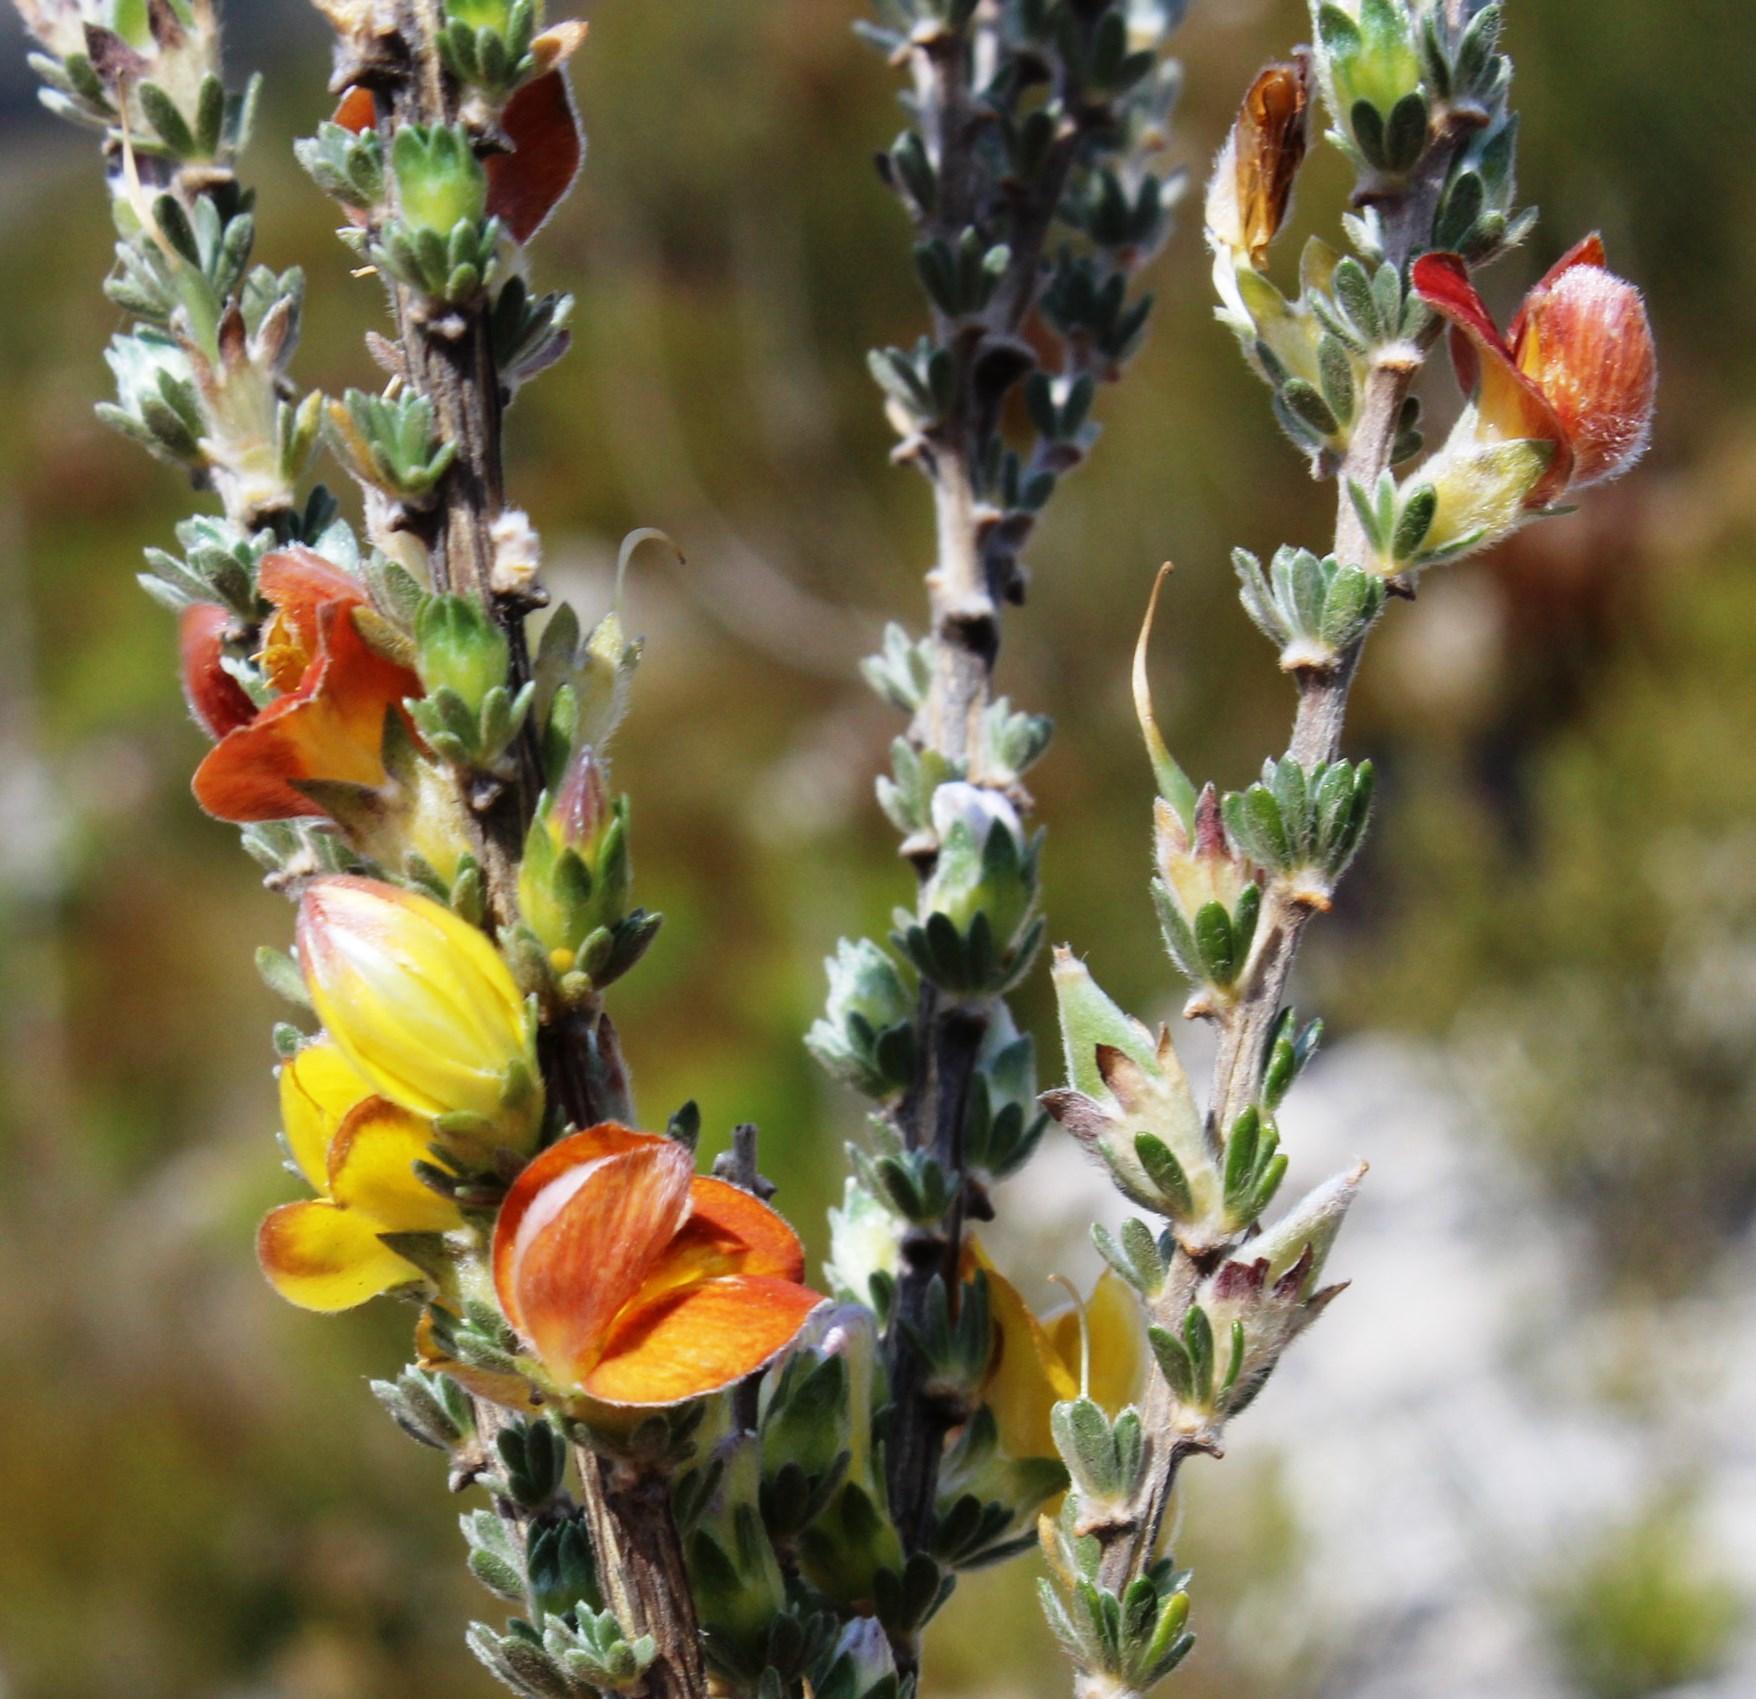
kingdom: Plantae
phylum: Tracheophyta
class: Magnoliopsida
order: Fabales
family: Fabaceae
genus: Aspalathus
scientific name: Aspalathus oblongifolia
